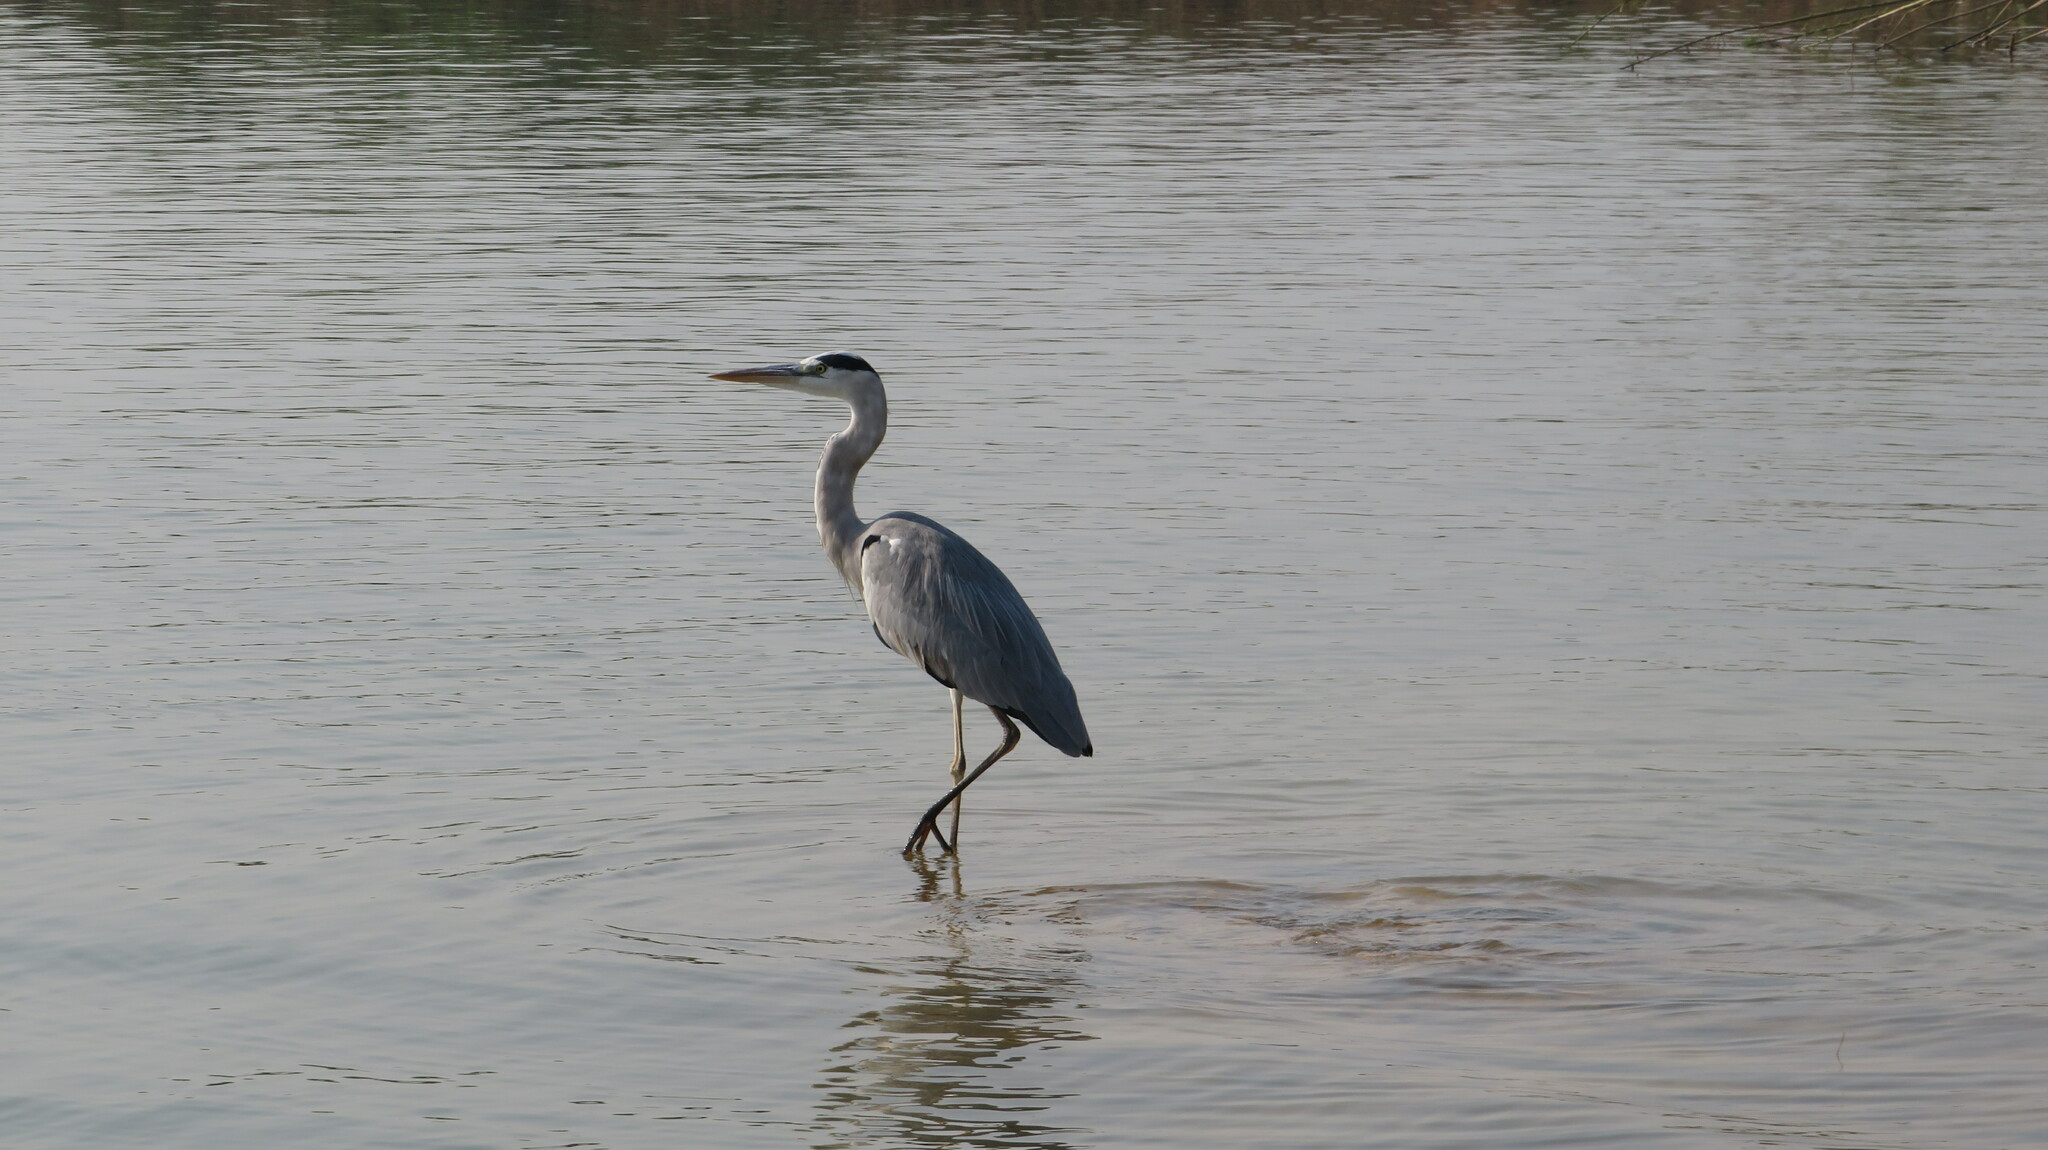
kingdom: Animalia
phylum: Chordata
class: Aves
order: Pelecaniformes
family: Ardeidae
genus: Ardea
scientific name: Ardea cinerea
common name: Grey heron
